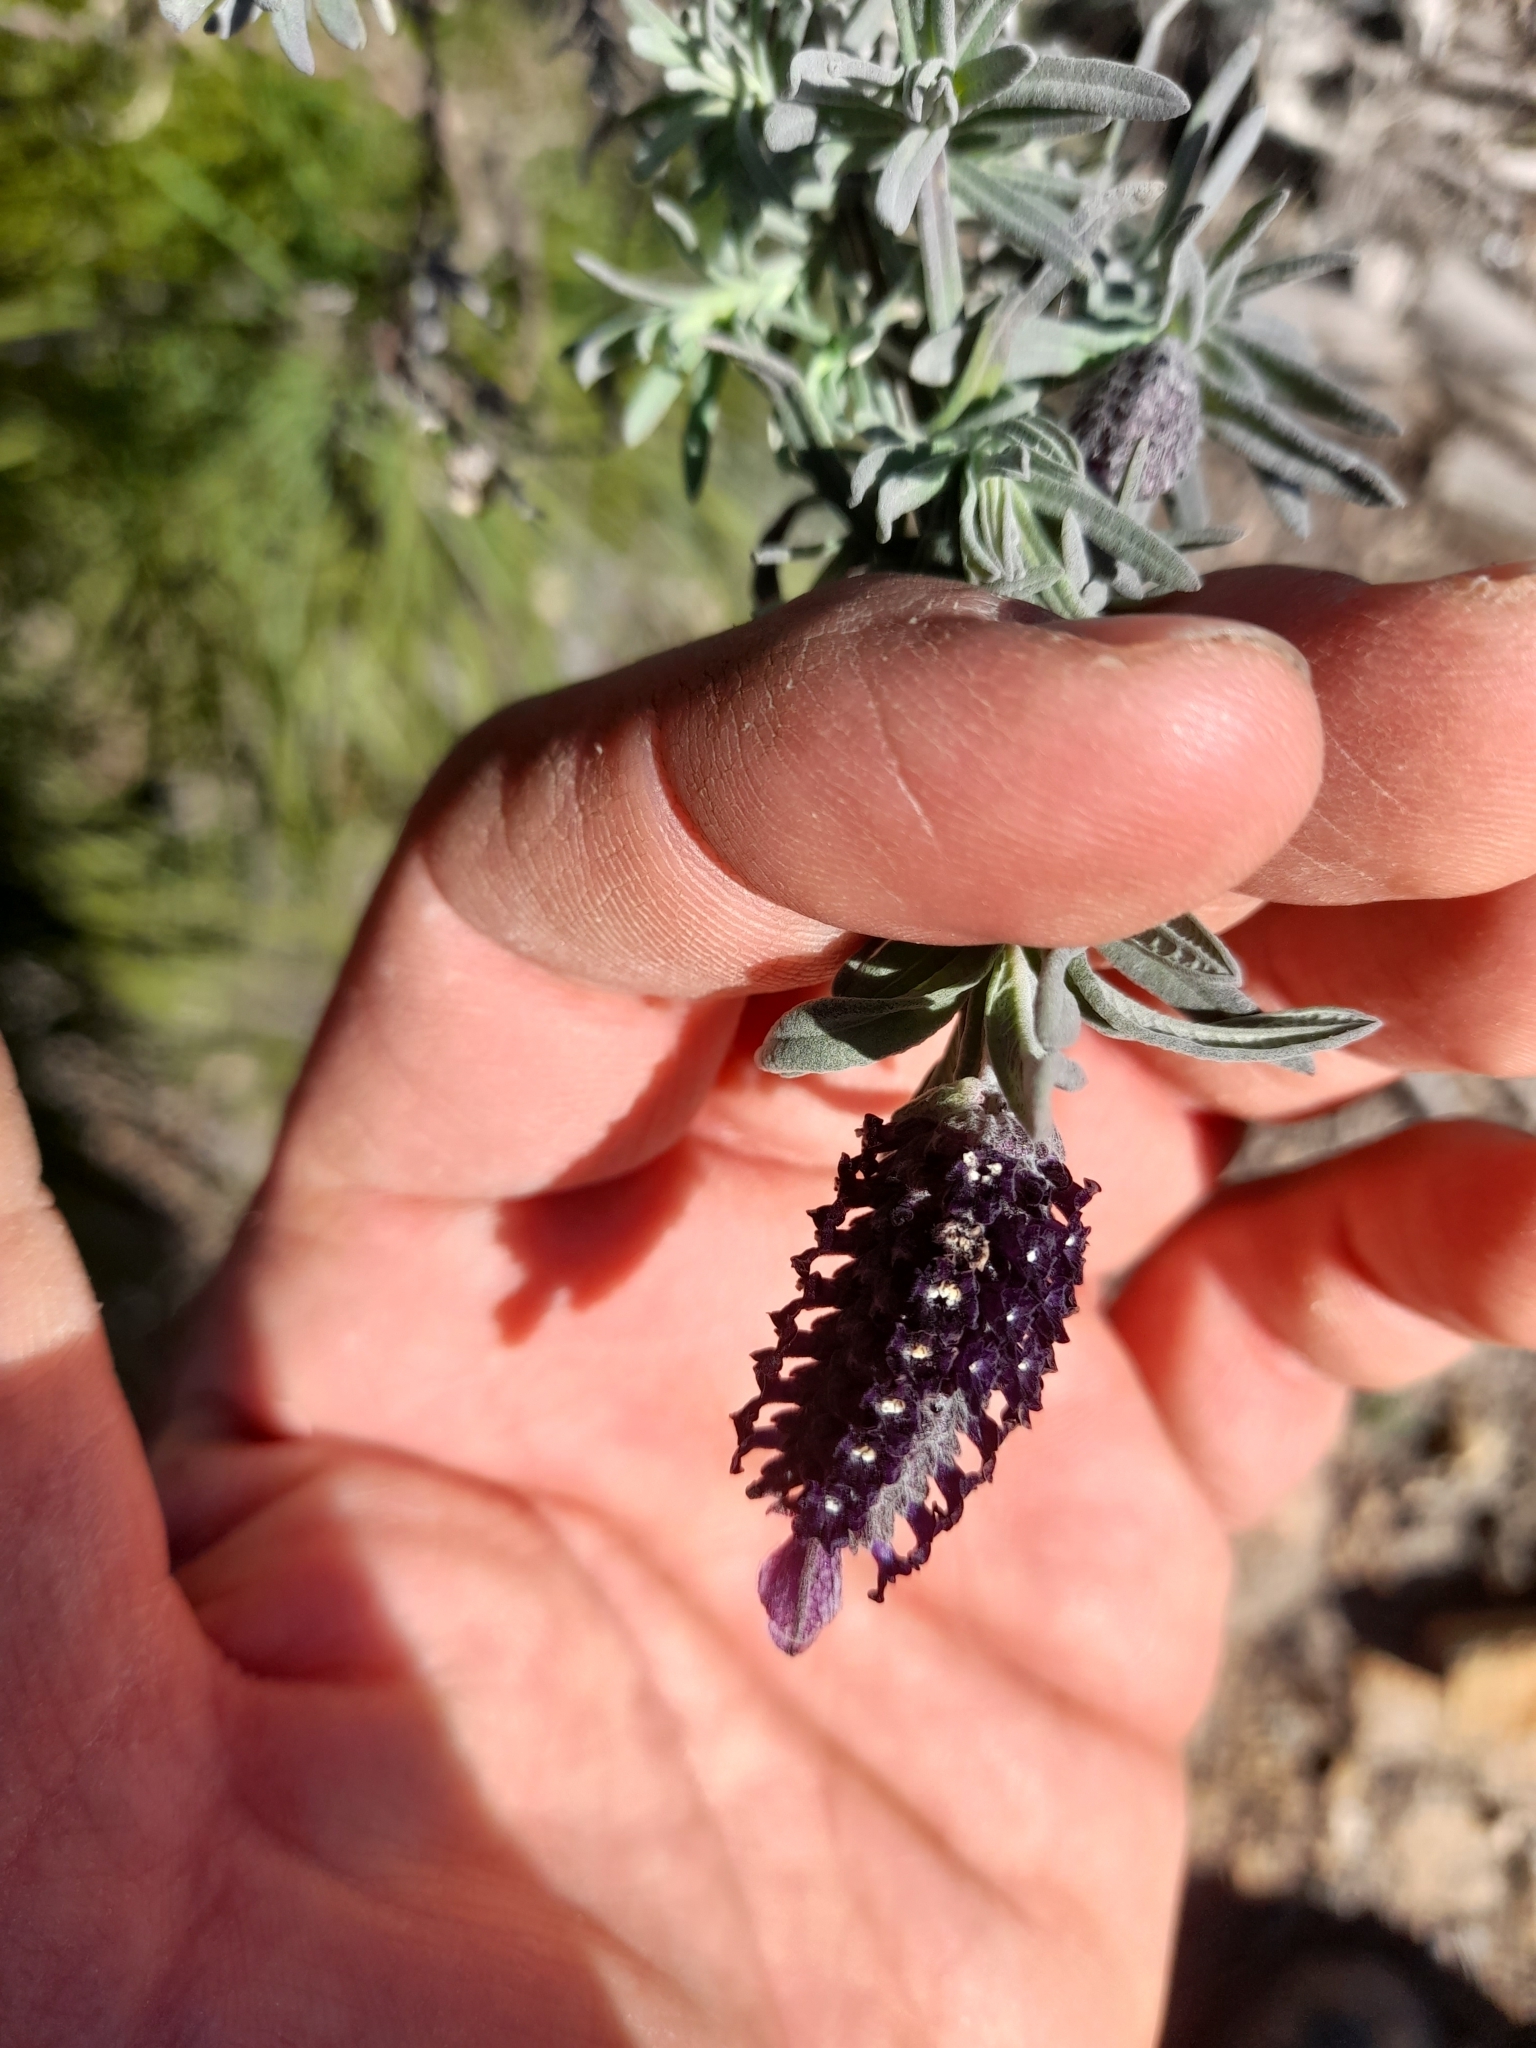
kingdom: Plantae
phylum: Tracheophyta
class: Magnoliopsida
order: Lamiales
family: Lamiaceae
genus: Lavandula
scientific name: Lavandula stoechas
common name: French lavender
